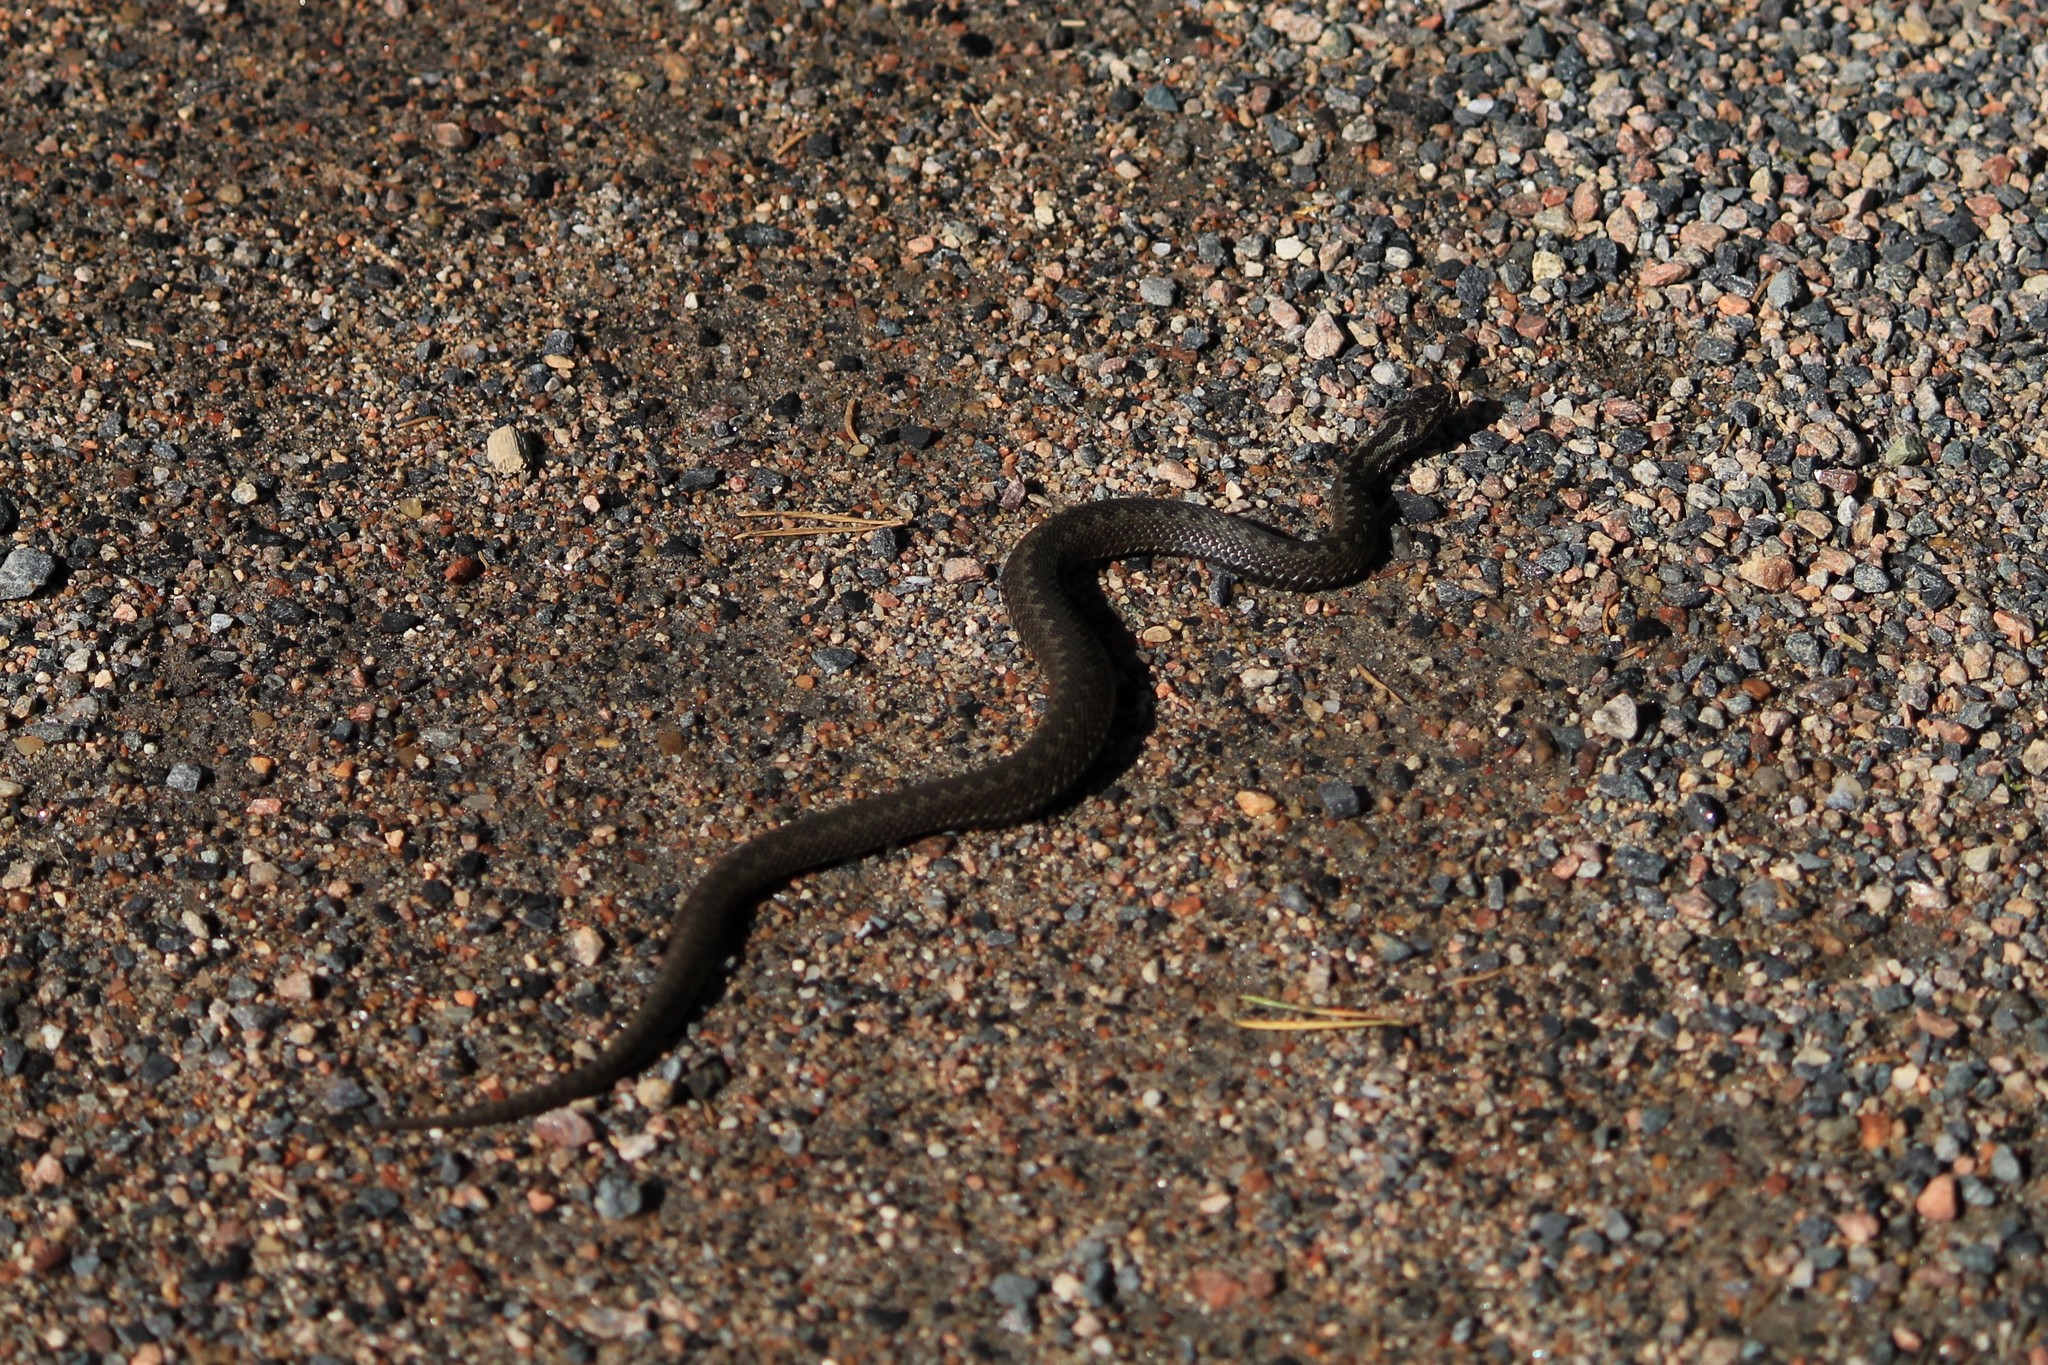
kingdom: Animalia
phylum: Chordata
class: Squamata
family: Viperidae
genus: Vipera
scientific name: Vipera berus
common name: Adder
